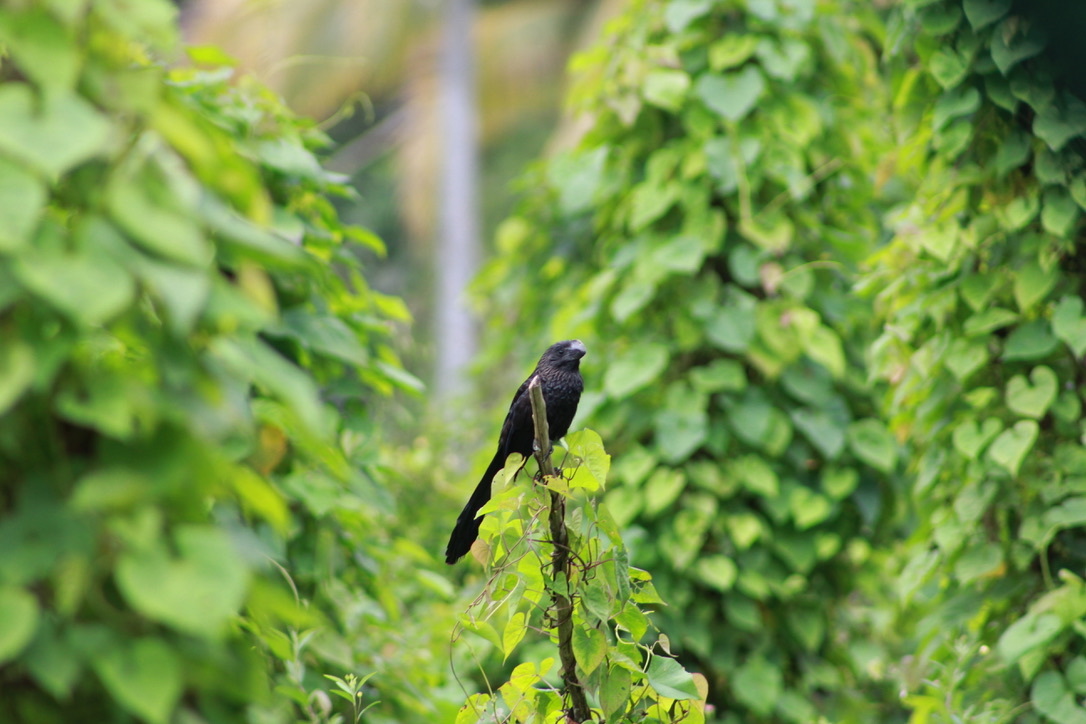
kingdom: Animalia
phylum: Chordata
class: Aves
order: Cuculiformes
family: Cuculidae
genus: Crotophaga
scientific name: Crotophaga ani
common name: Smooth-billed ani
